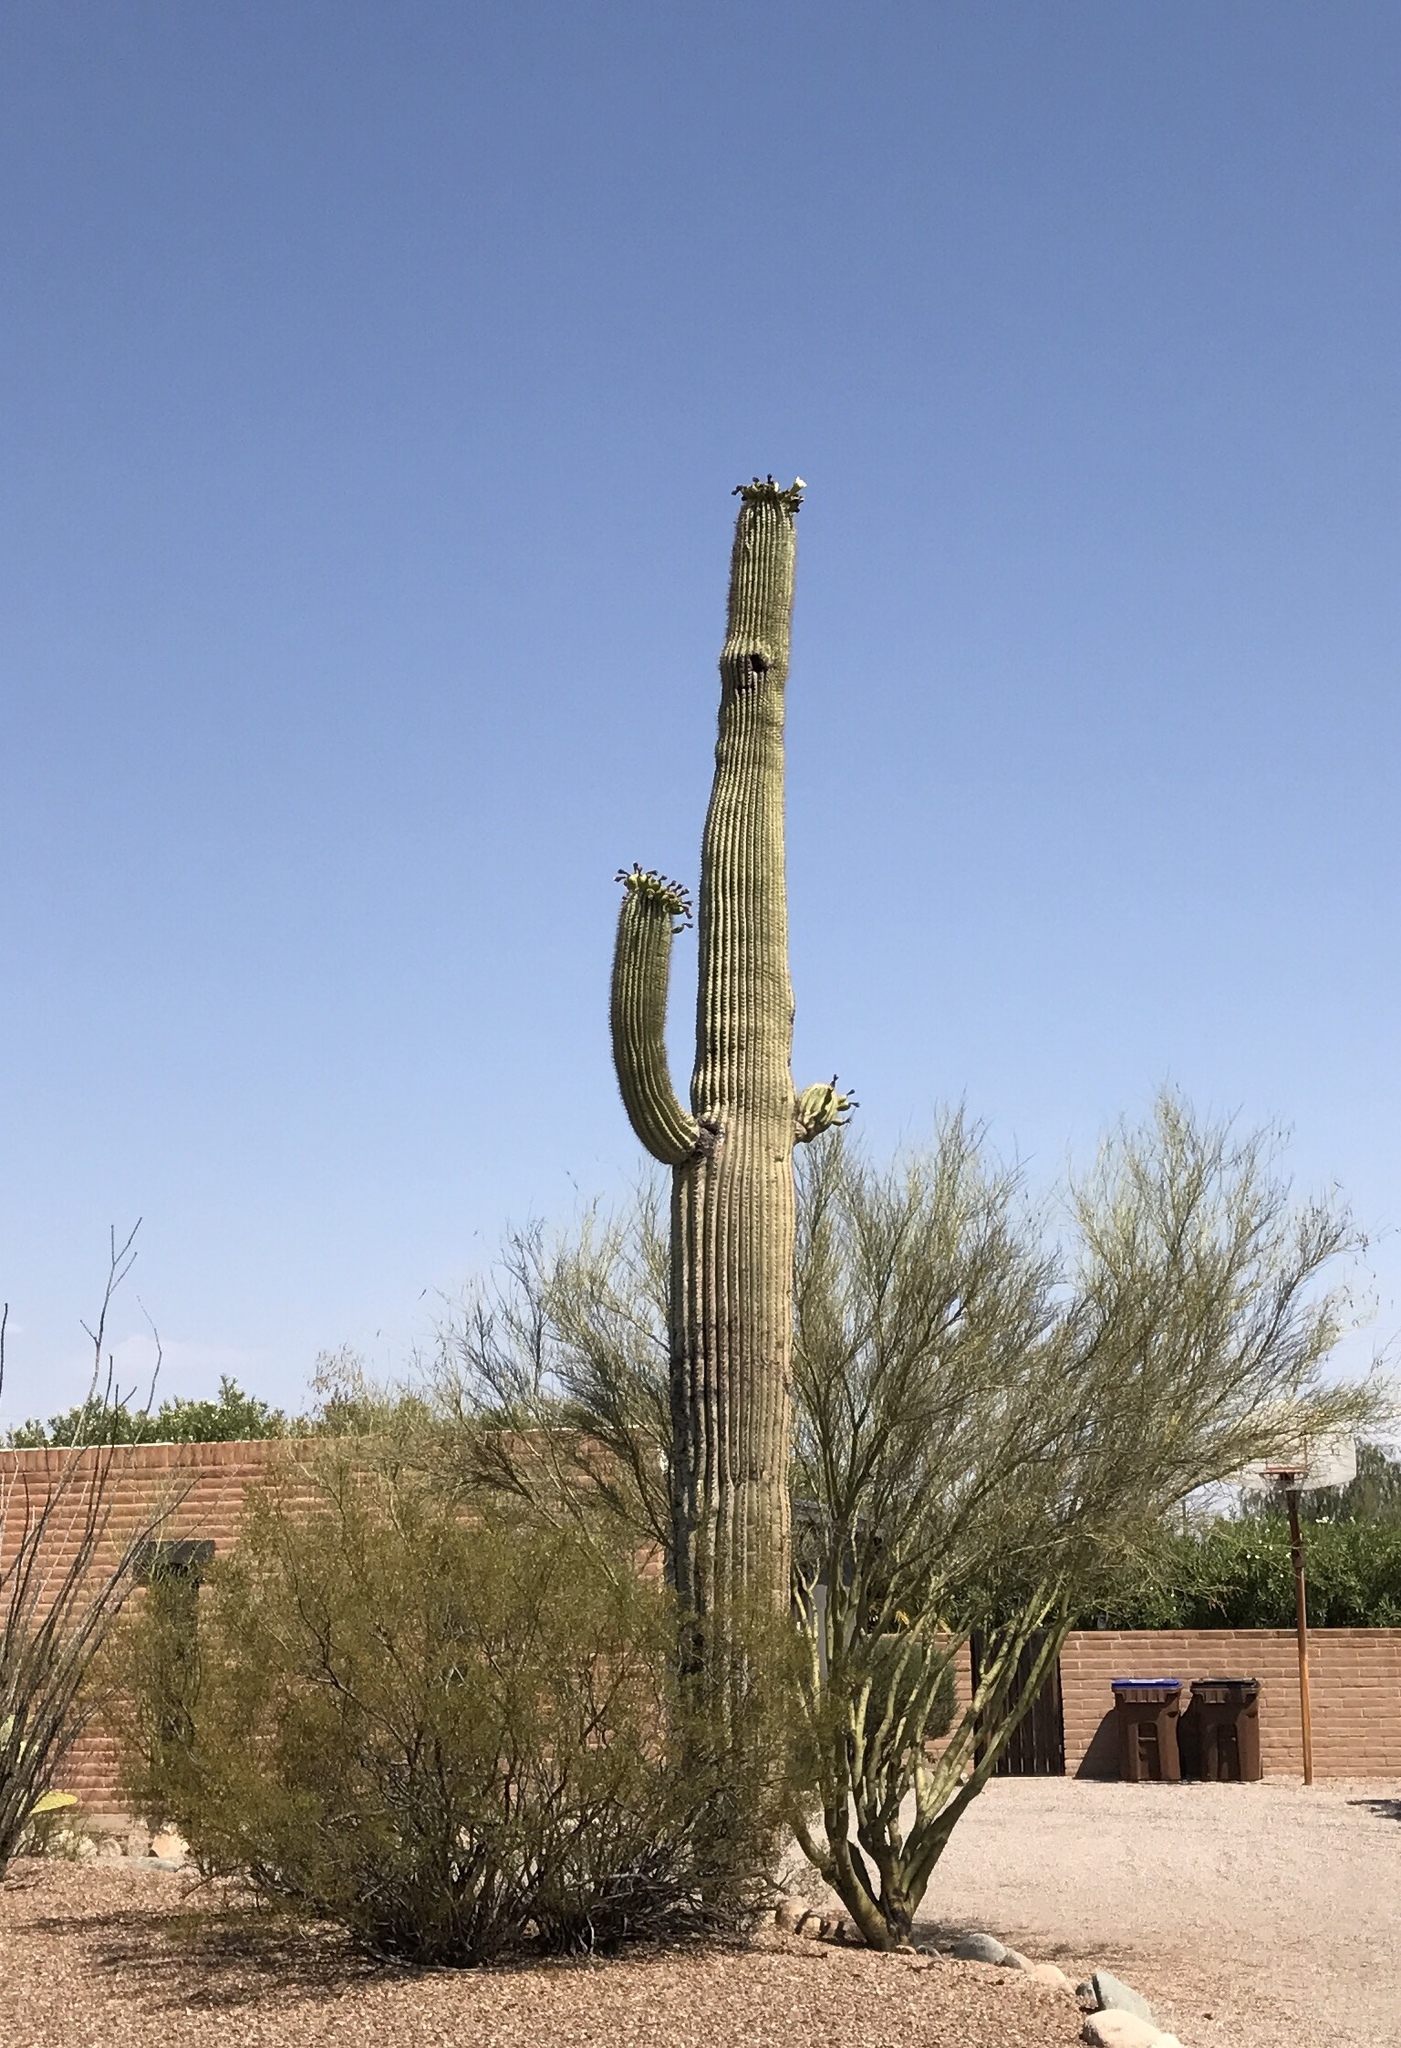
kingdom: Plantae
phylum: Tracheophyta
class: Magnoliopsida
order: Caryophyllales
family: Cactaceae
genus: Carnegiea
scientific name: Carnegiea gigantea
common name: Saguaro
